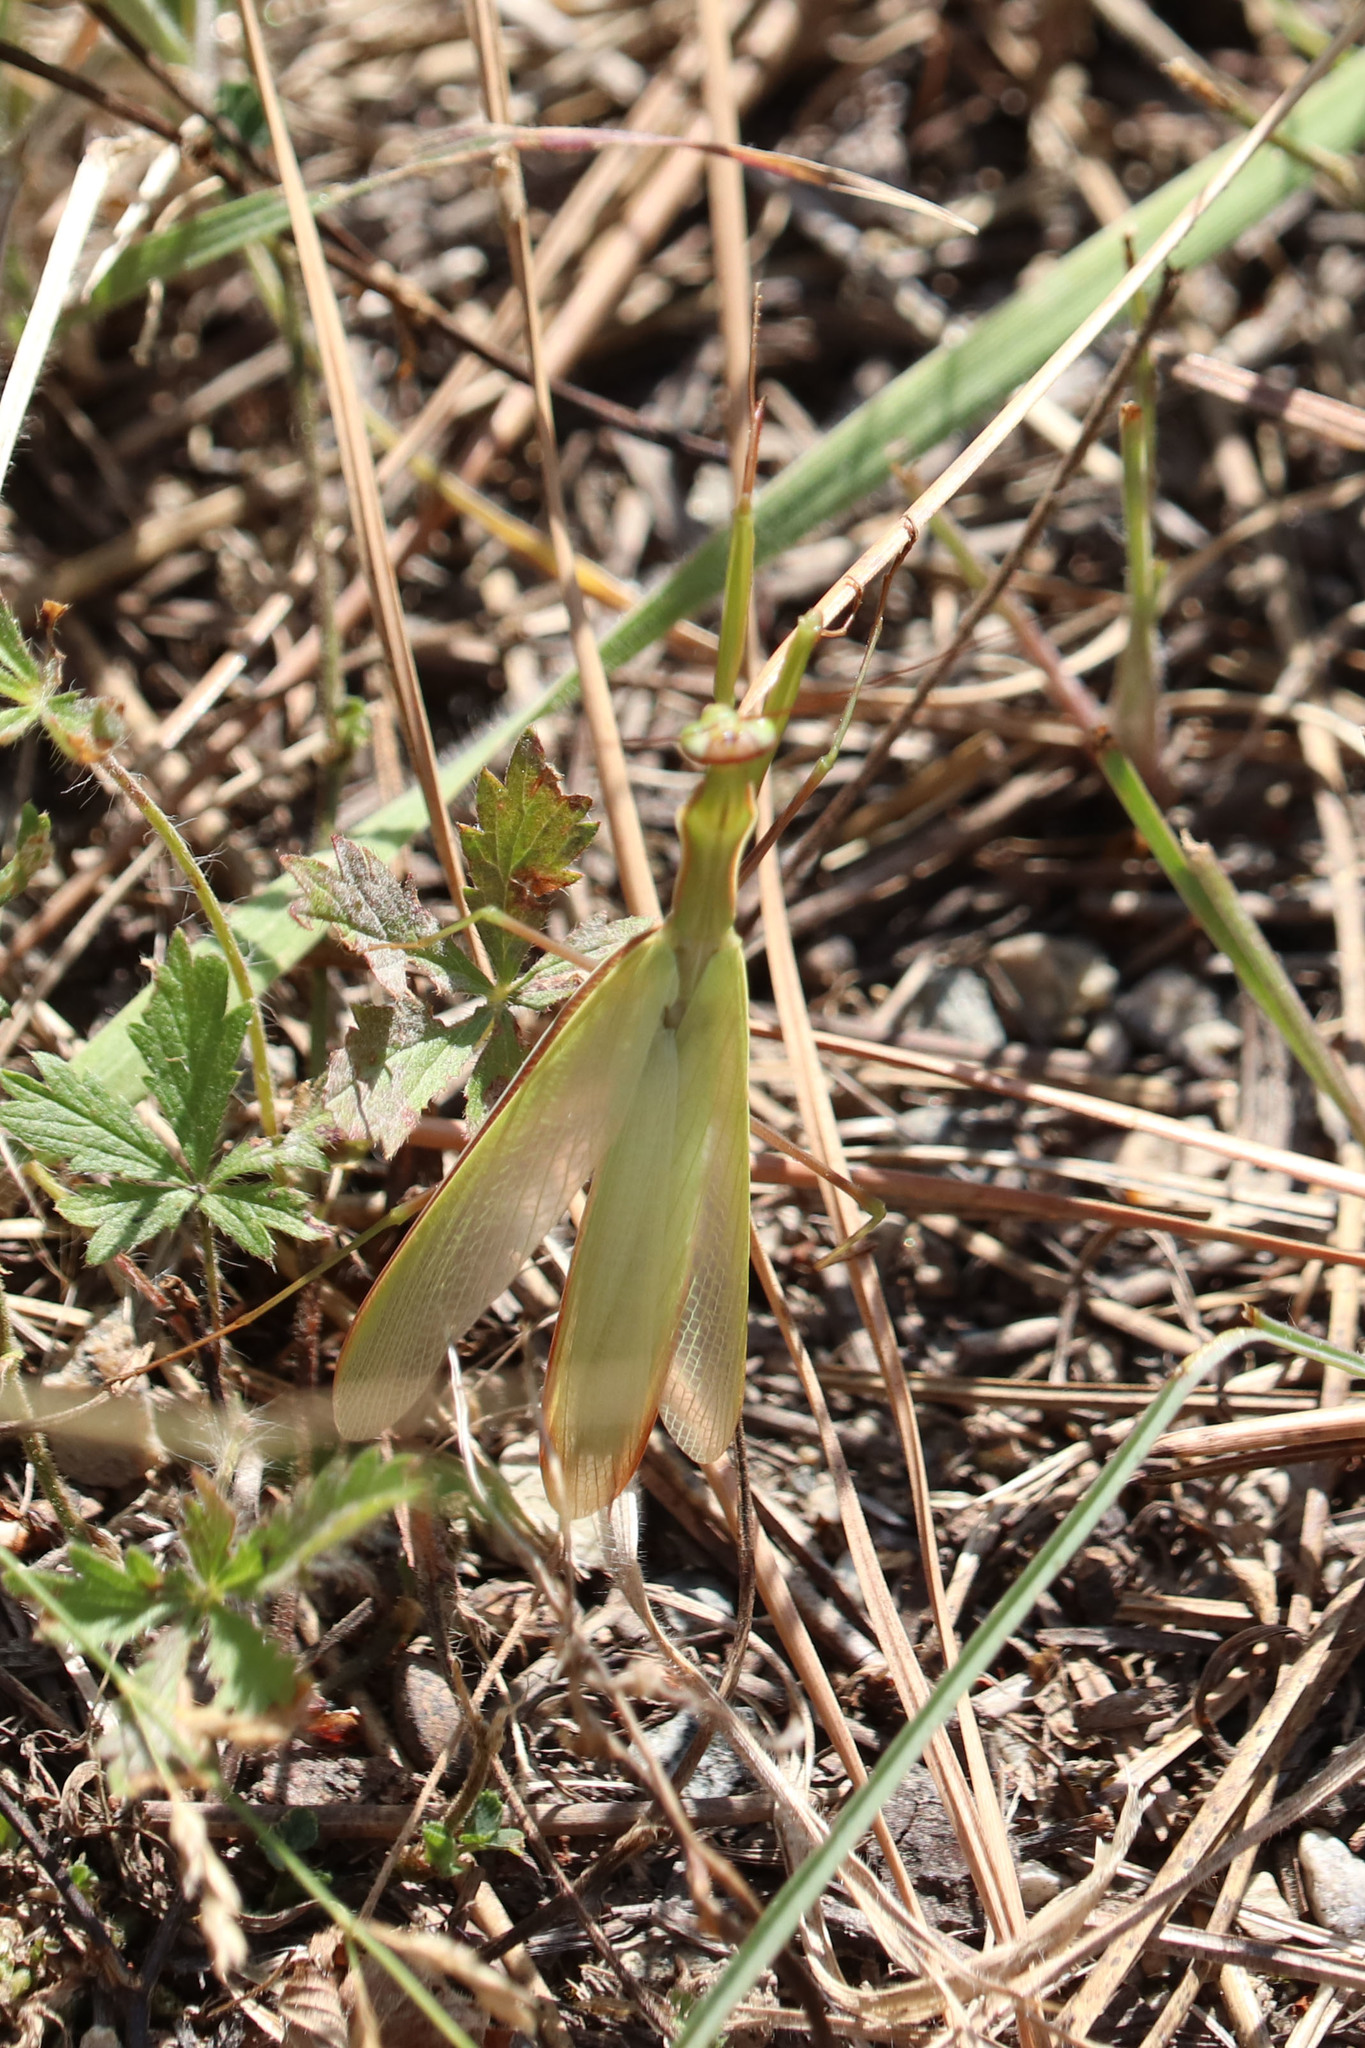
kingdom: Animalia
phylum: Arthropoda
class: Insecta
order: Mantodea
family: Mantidae
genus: Mantis
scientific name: Mantis religiosa
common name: Praying mantis
